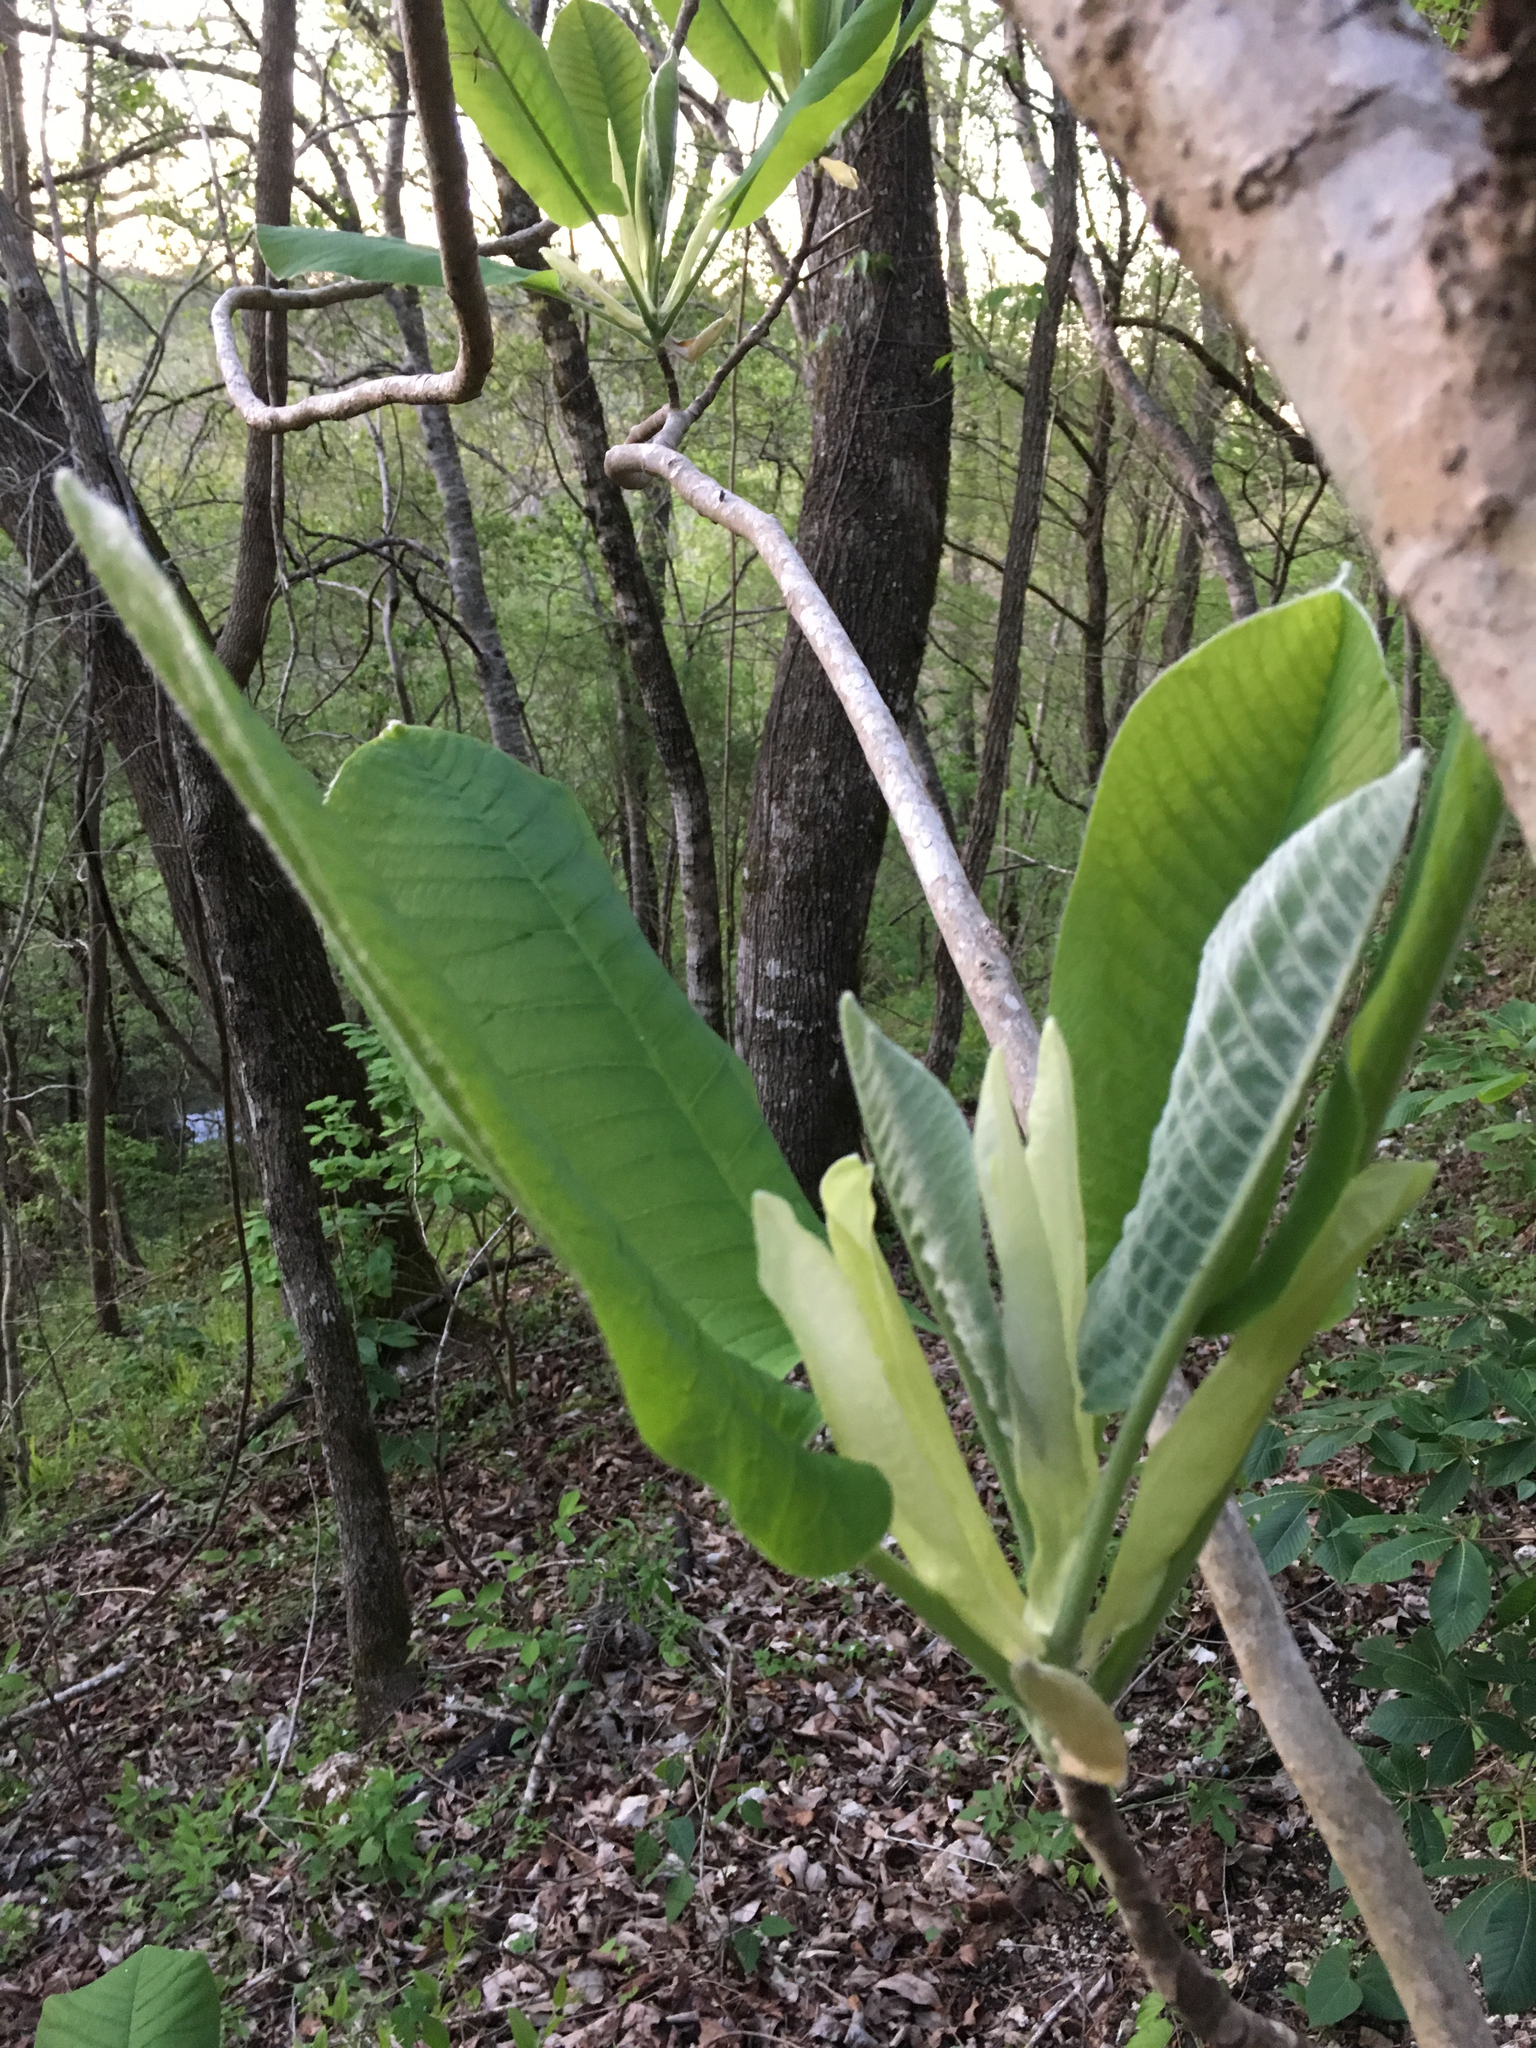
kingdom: Plantae
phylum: Tracheophyta
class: Magnoliopsida
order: Magnoliales
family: Magnoliaceae
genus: Magnolia
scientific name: Magnolia macrophylla
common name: Big-leaf magnolia
